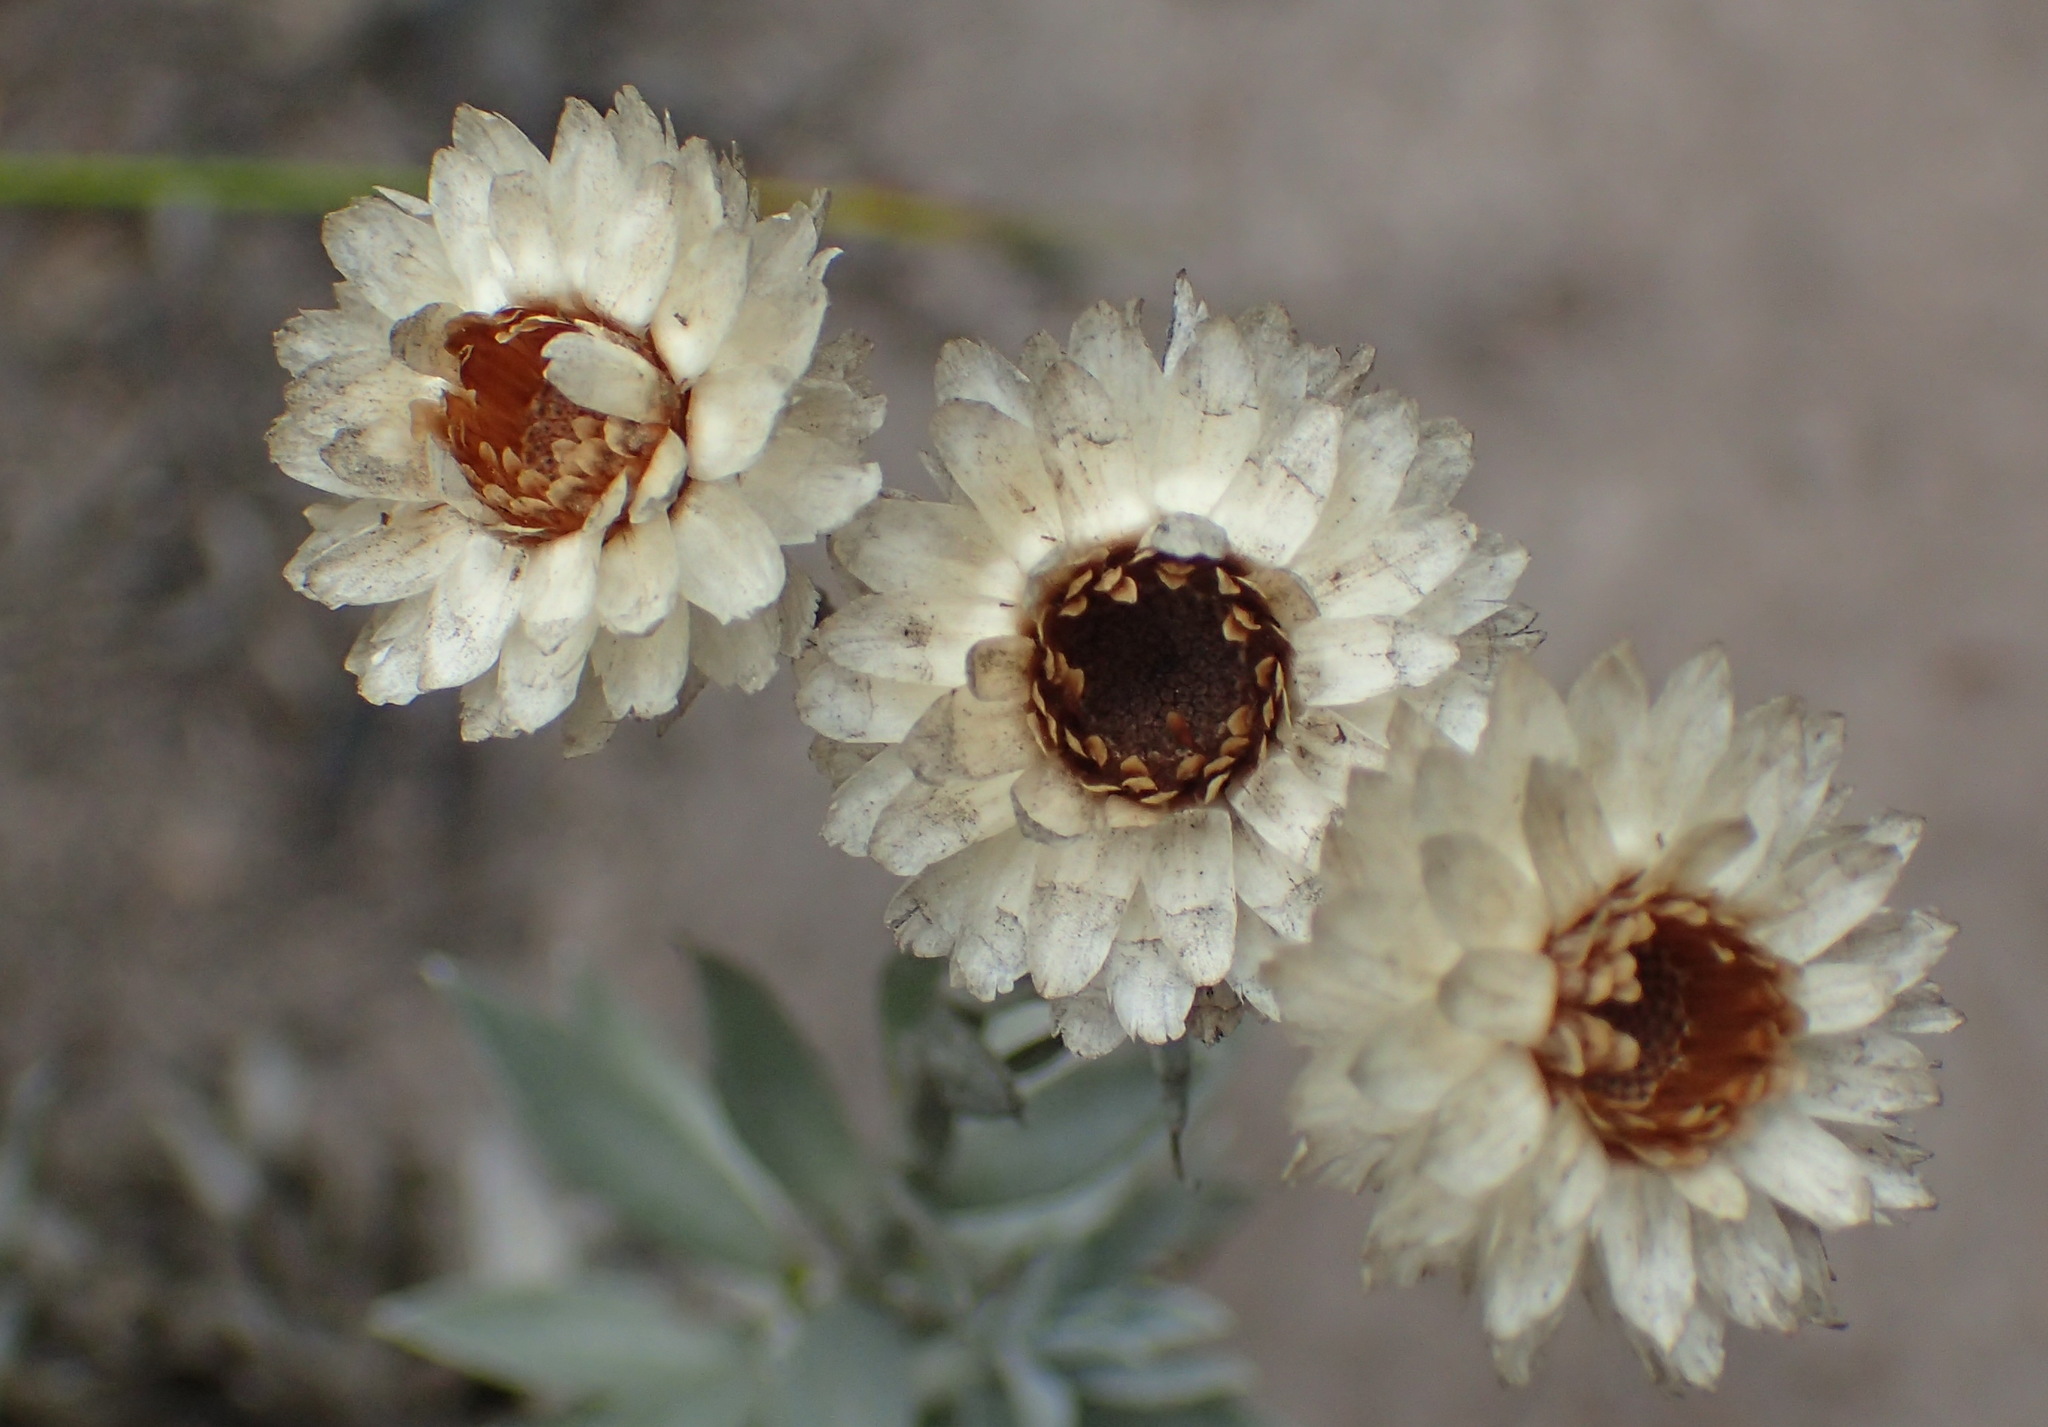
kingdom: Plantae
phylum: Tracheophyta
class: Magnoliopsida
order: Asterales
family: Asteraceae
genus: Achyranthemum
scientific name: Achyranthemum paniculatum
